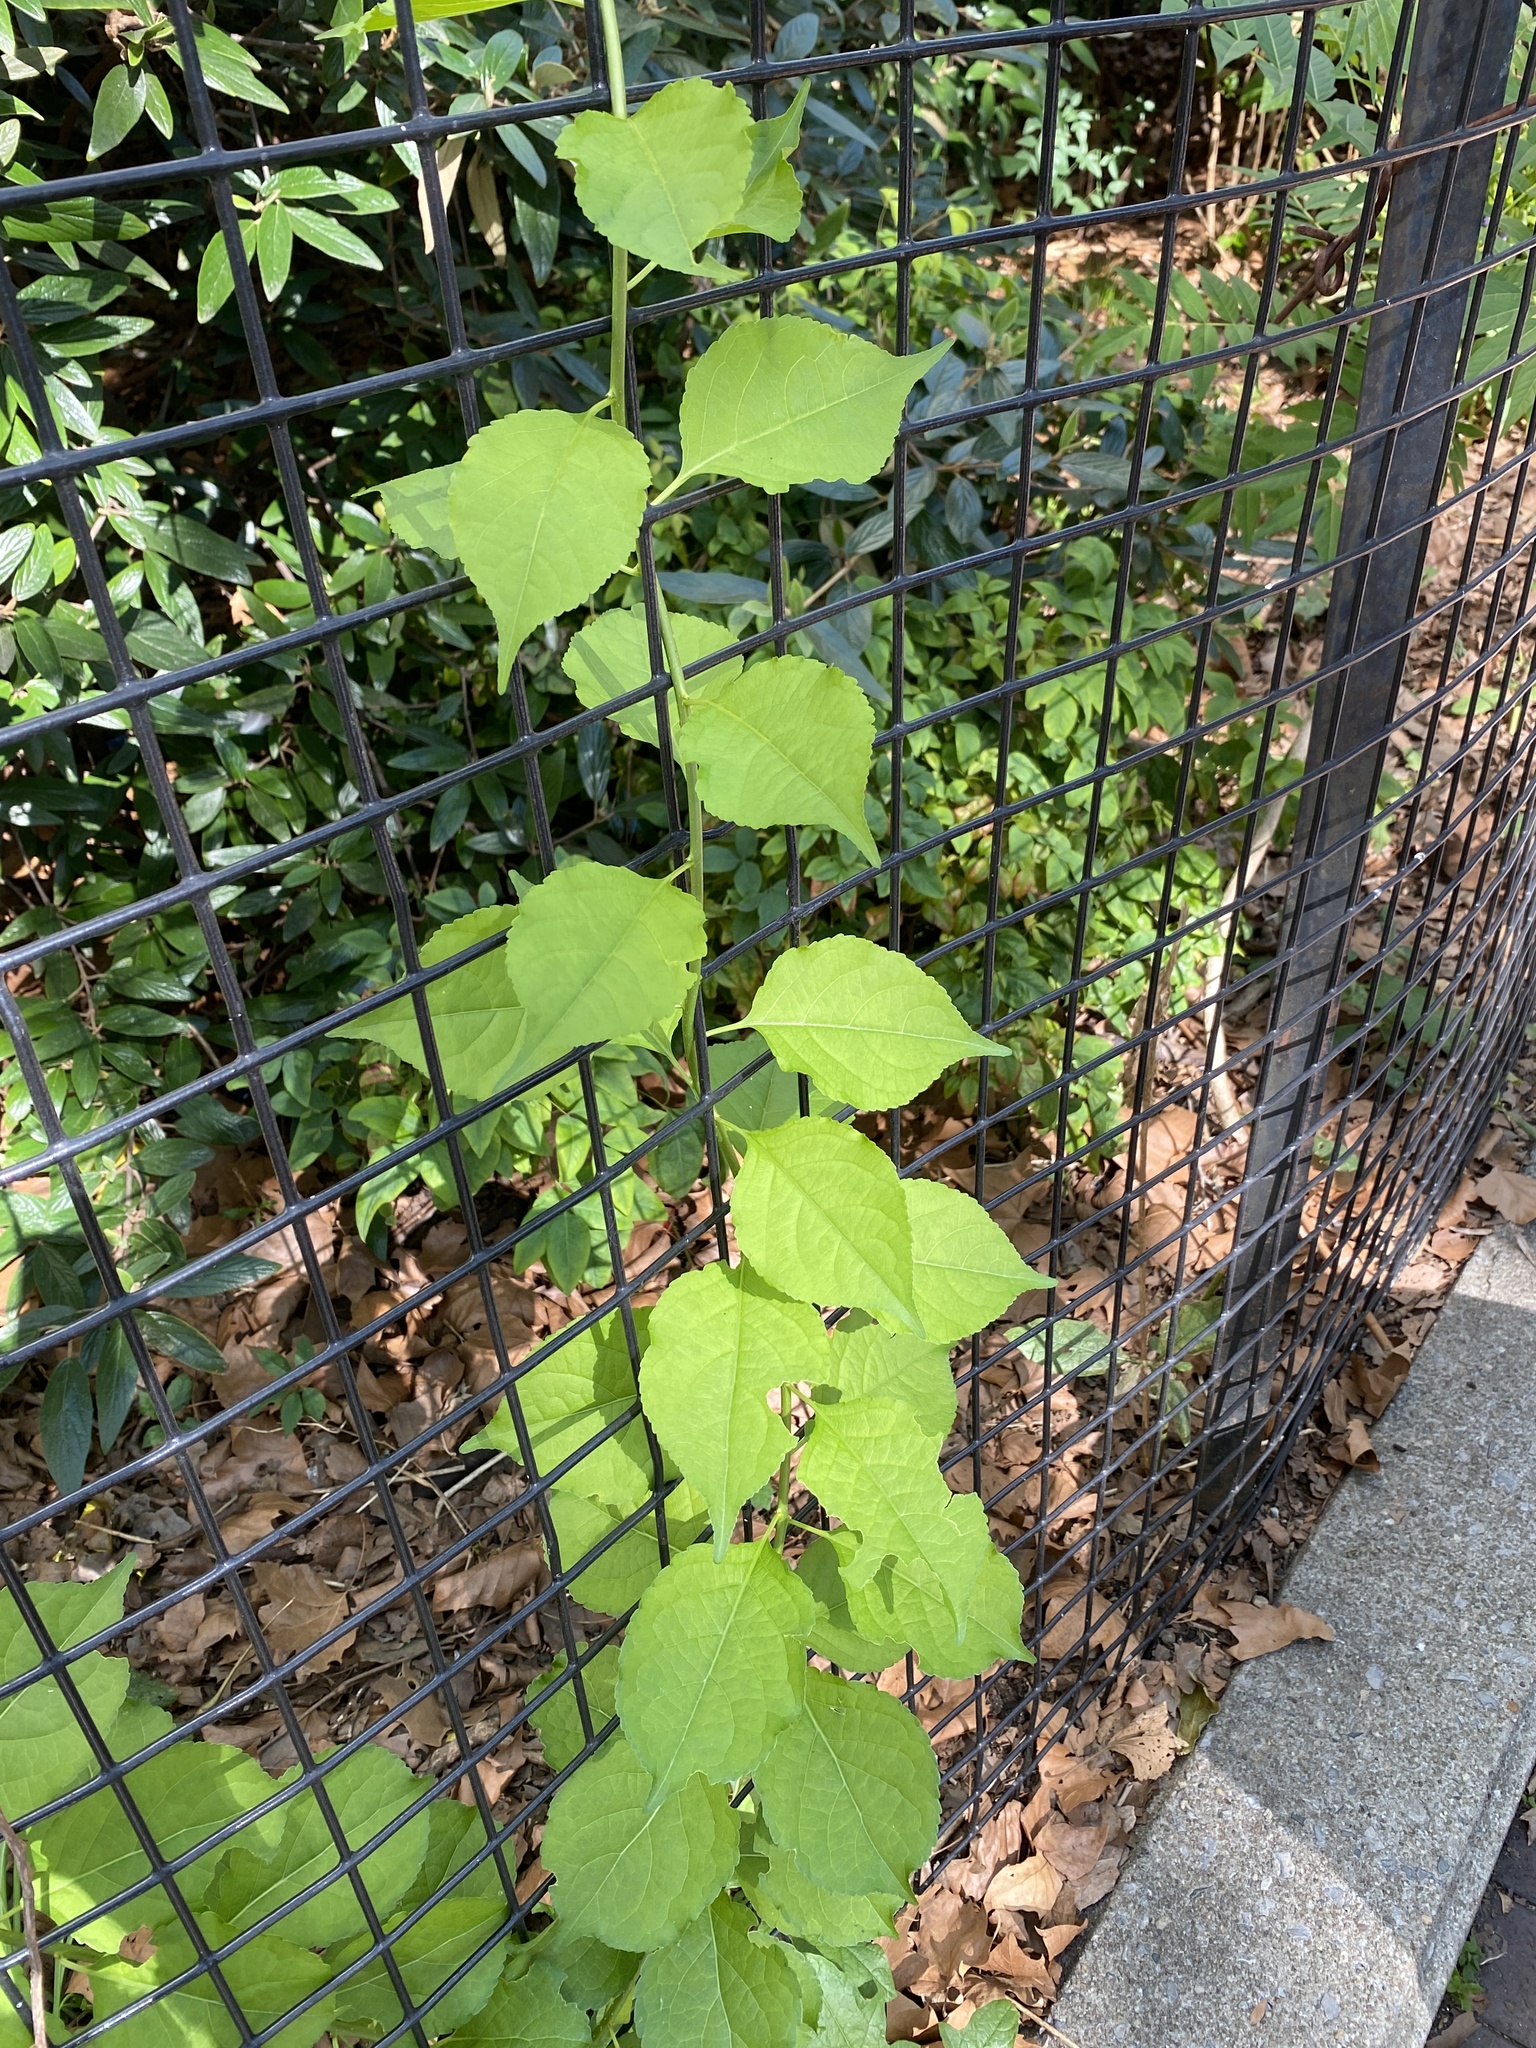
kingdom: Plantae
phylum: Tracheophyta
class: Magnoliopsida
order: Celastrales
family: Celastraceae
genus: Celastrus
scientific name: Celastrus orbiculatus
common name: Oriental bittersweet
